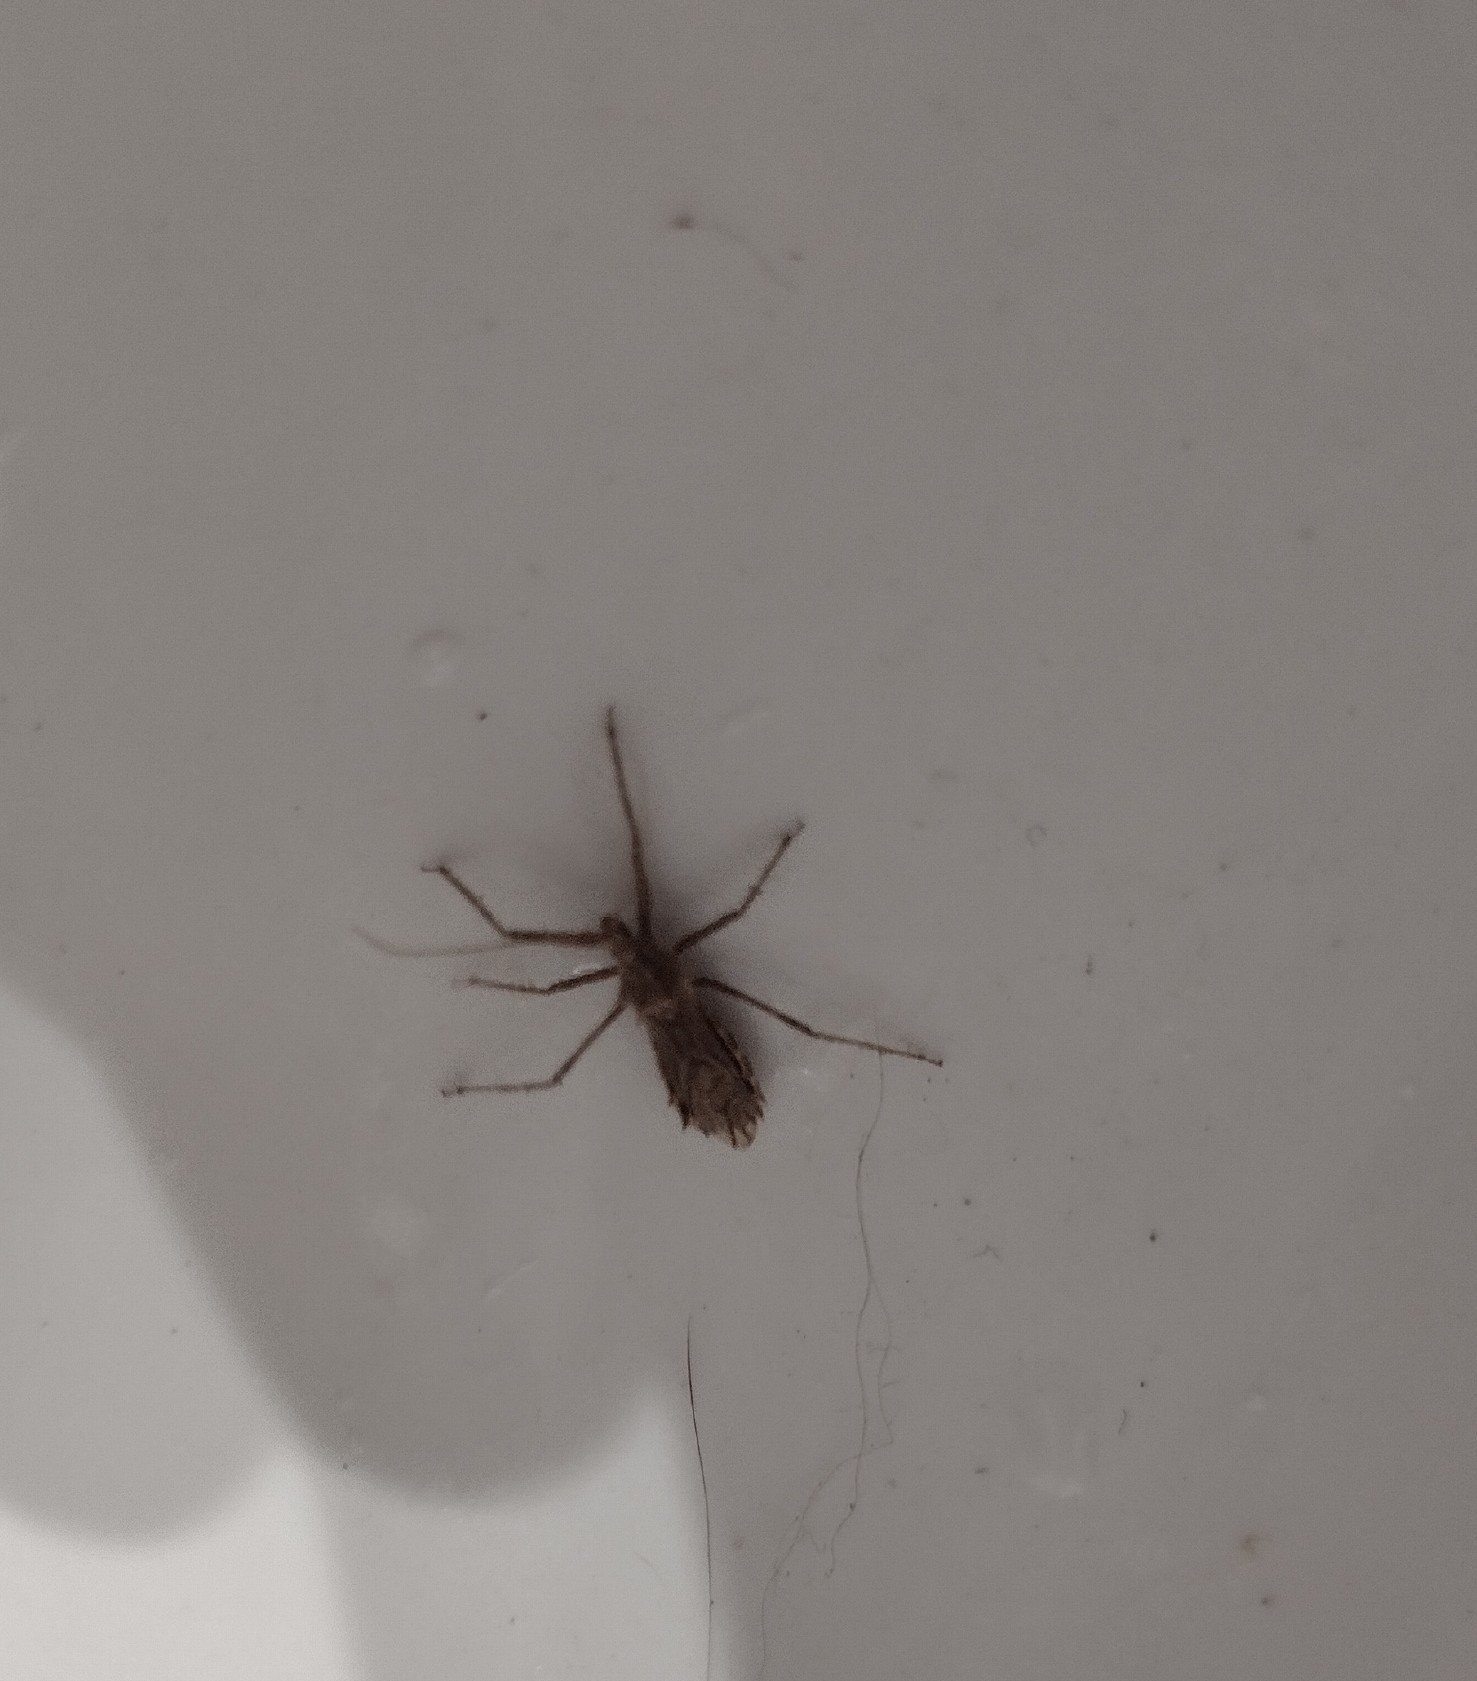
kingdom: Animalia
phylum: Arthropoda
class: Insecta
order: Hemiptera
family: Reduviidae
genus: Atrachelus
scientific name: Atrachelus cinereus
